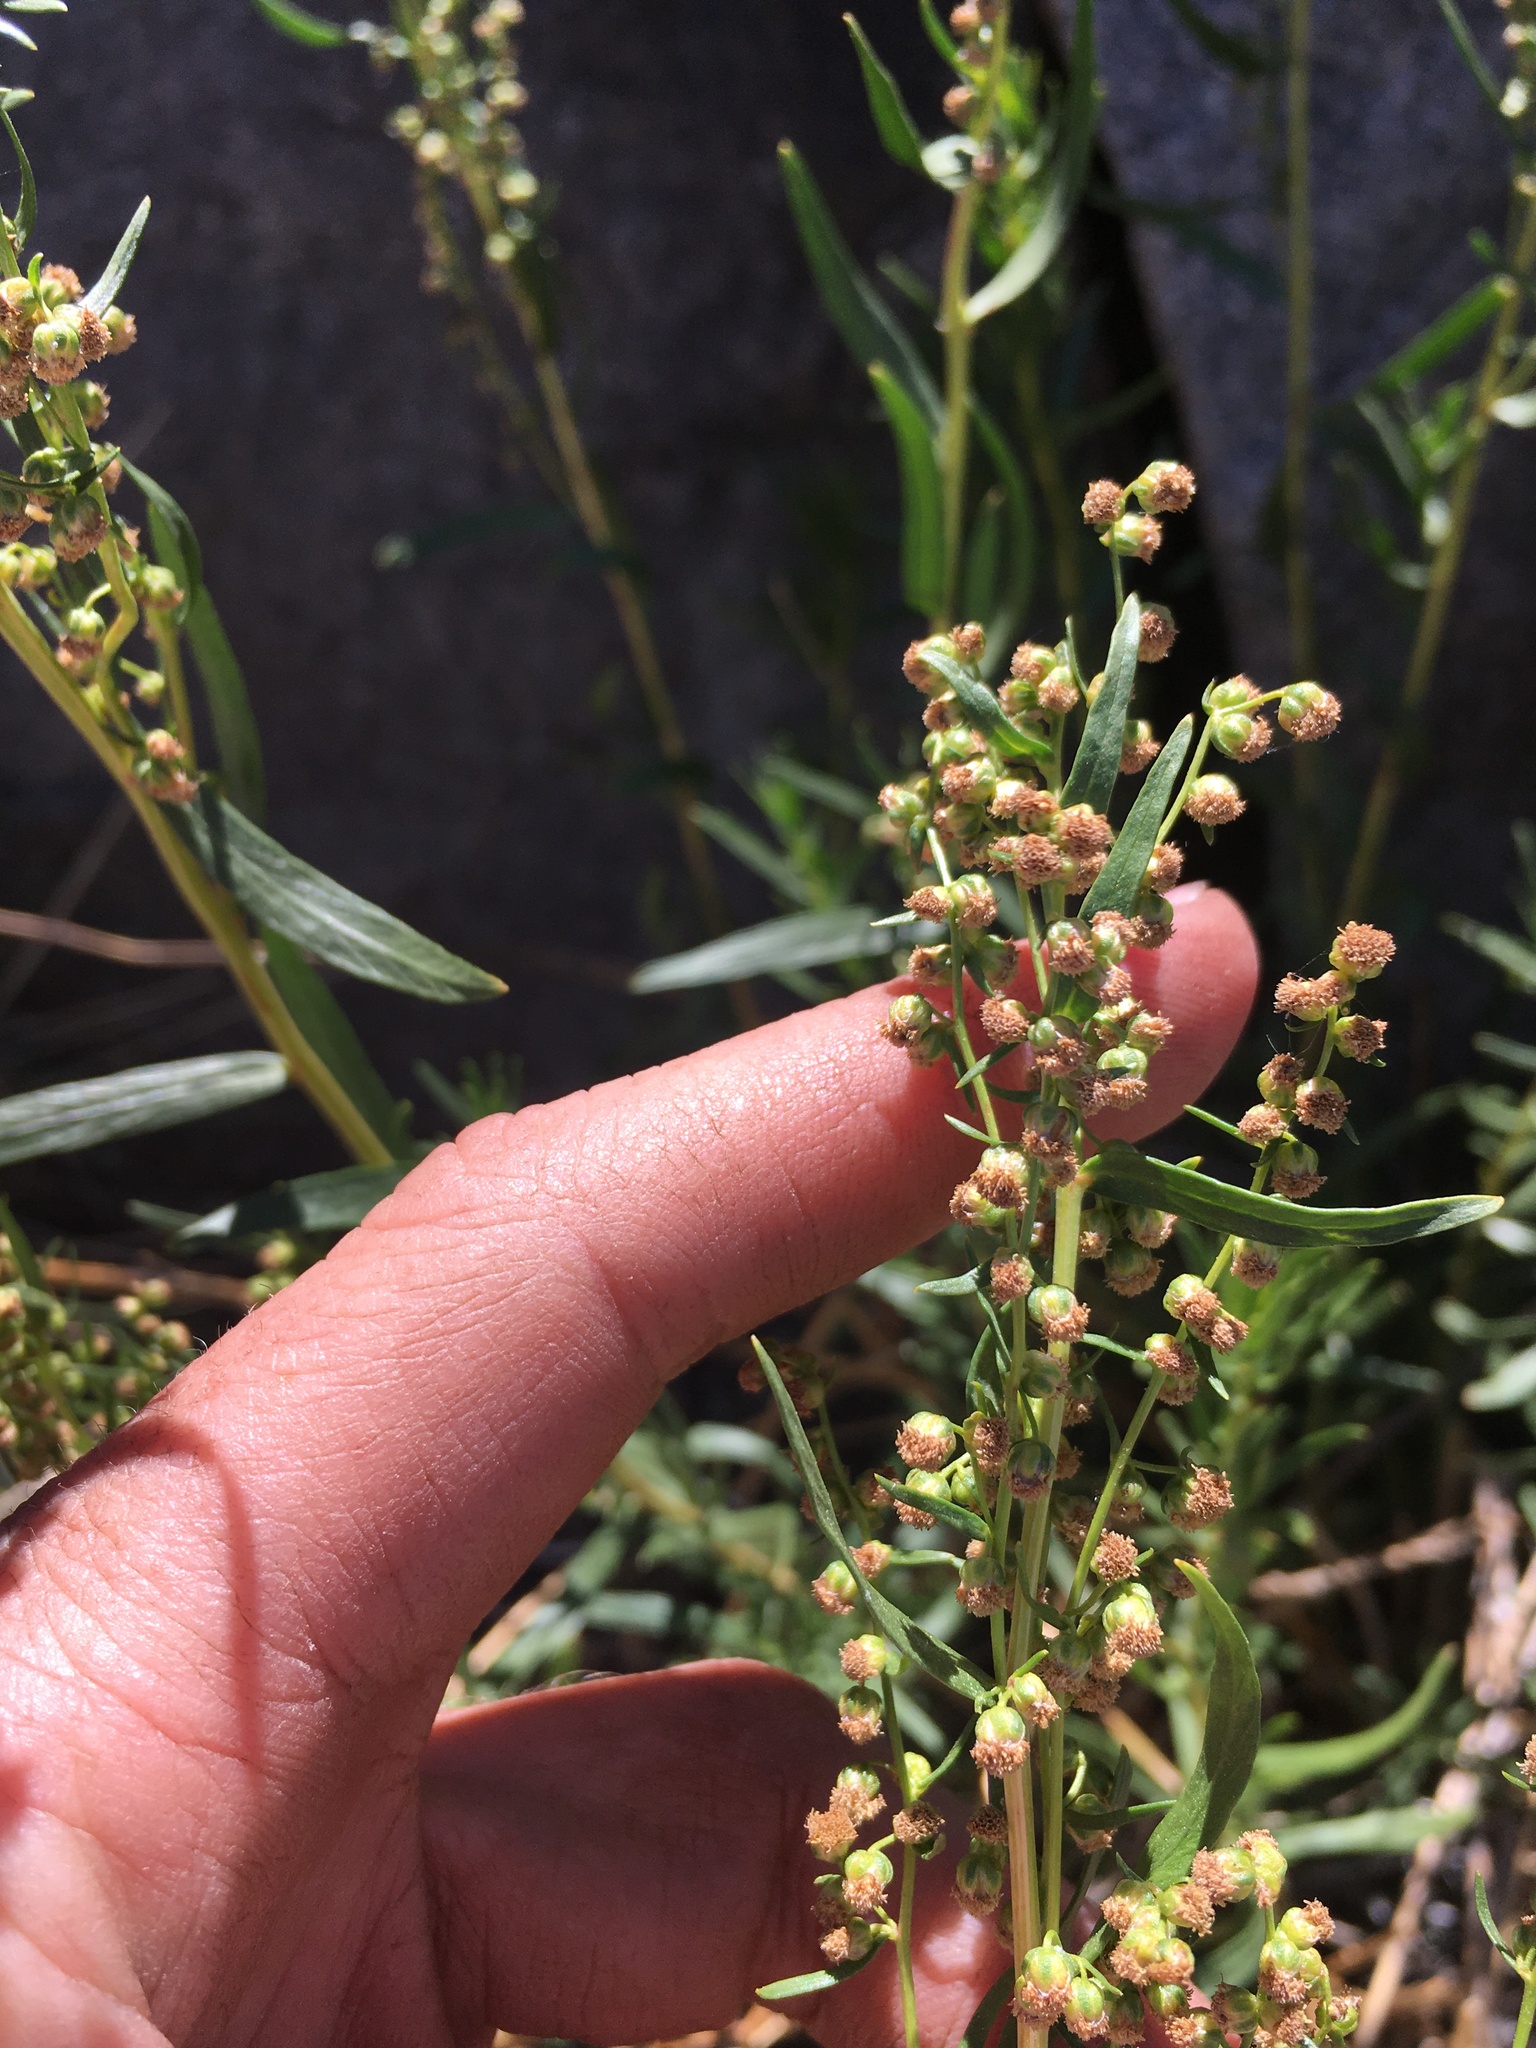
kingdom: Plantae
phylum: Tracheophyta
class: Magnoliopsida
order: Asterales
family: Asteraceae
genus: Artemisia
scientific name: Artemisia dracunculus
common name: Tarragon
